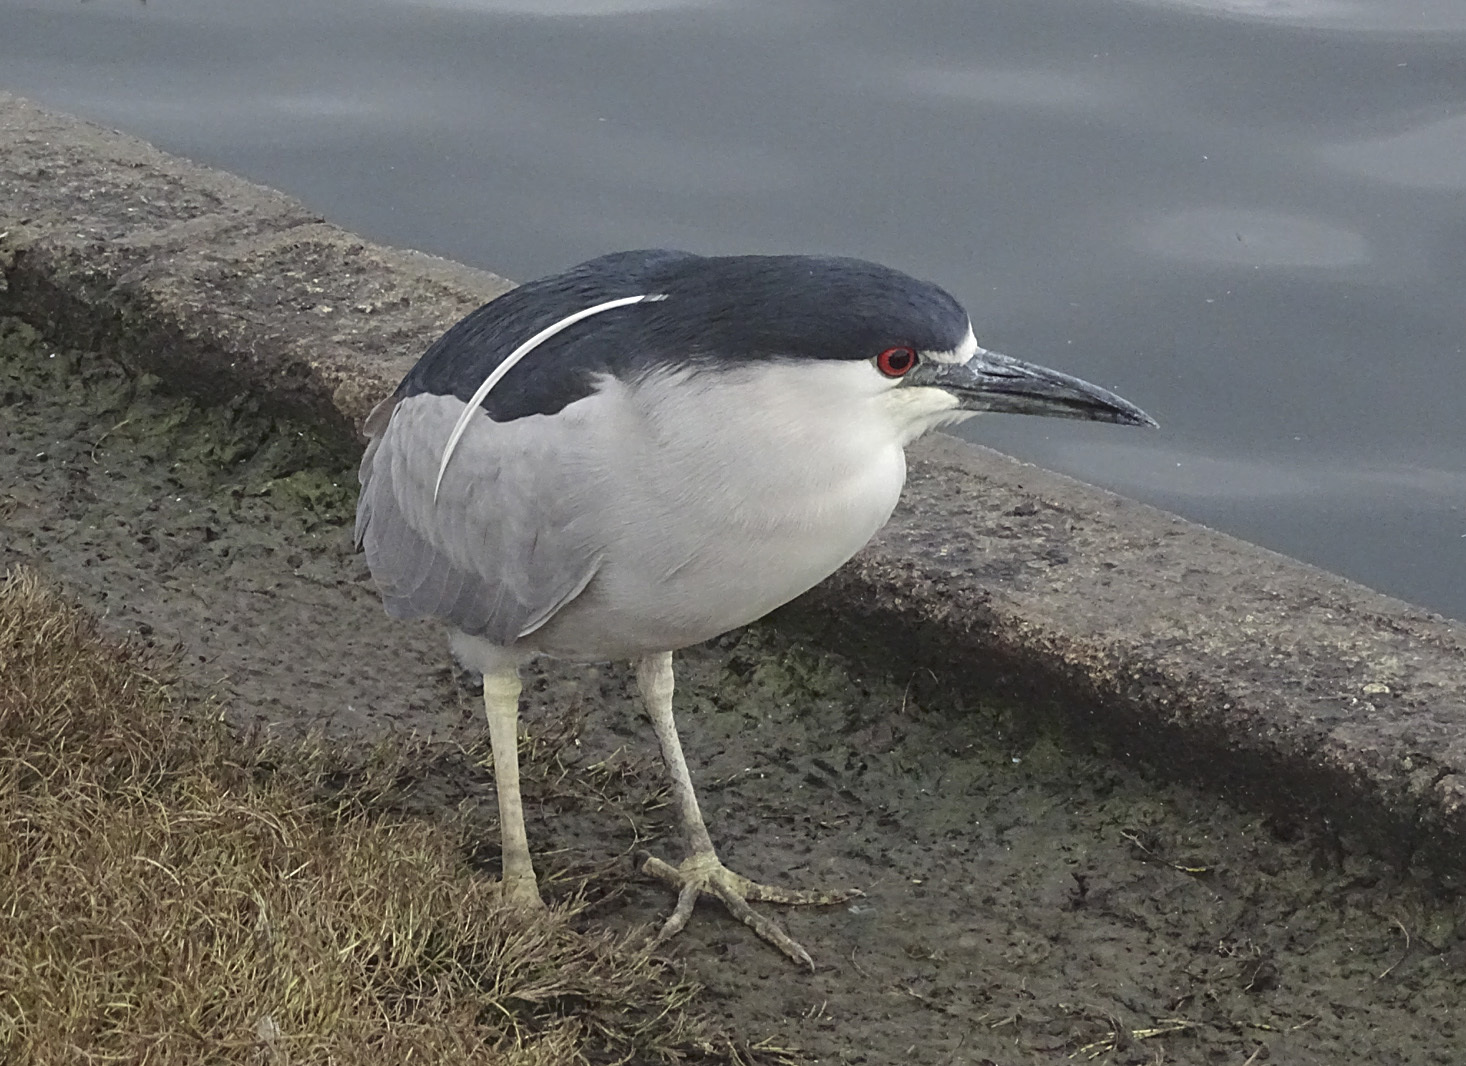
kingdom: Animalia
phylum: Chordata
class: Aves
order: Pelecaniformes
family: Ardeidae
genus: Nycticorax
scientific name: Nycticorax nycticorax
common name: Black-crowned night heron
